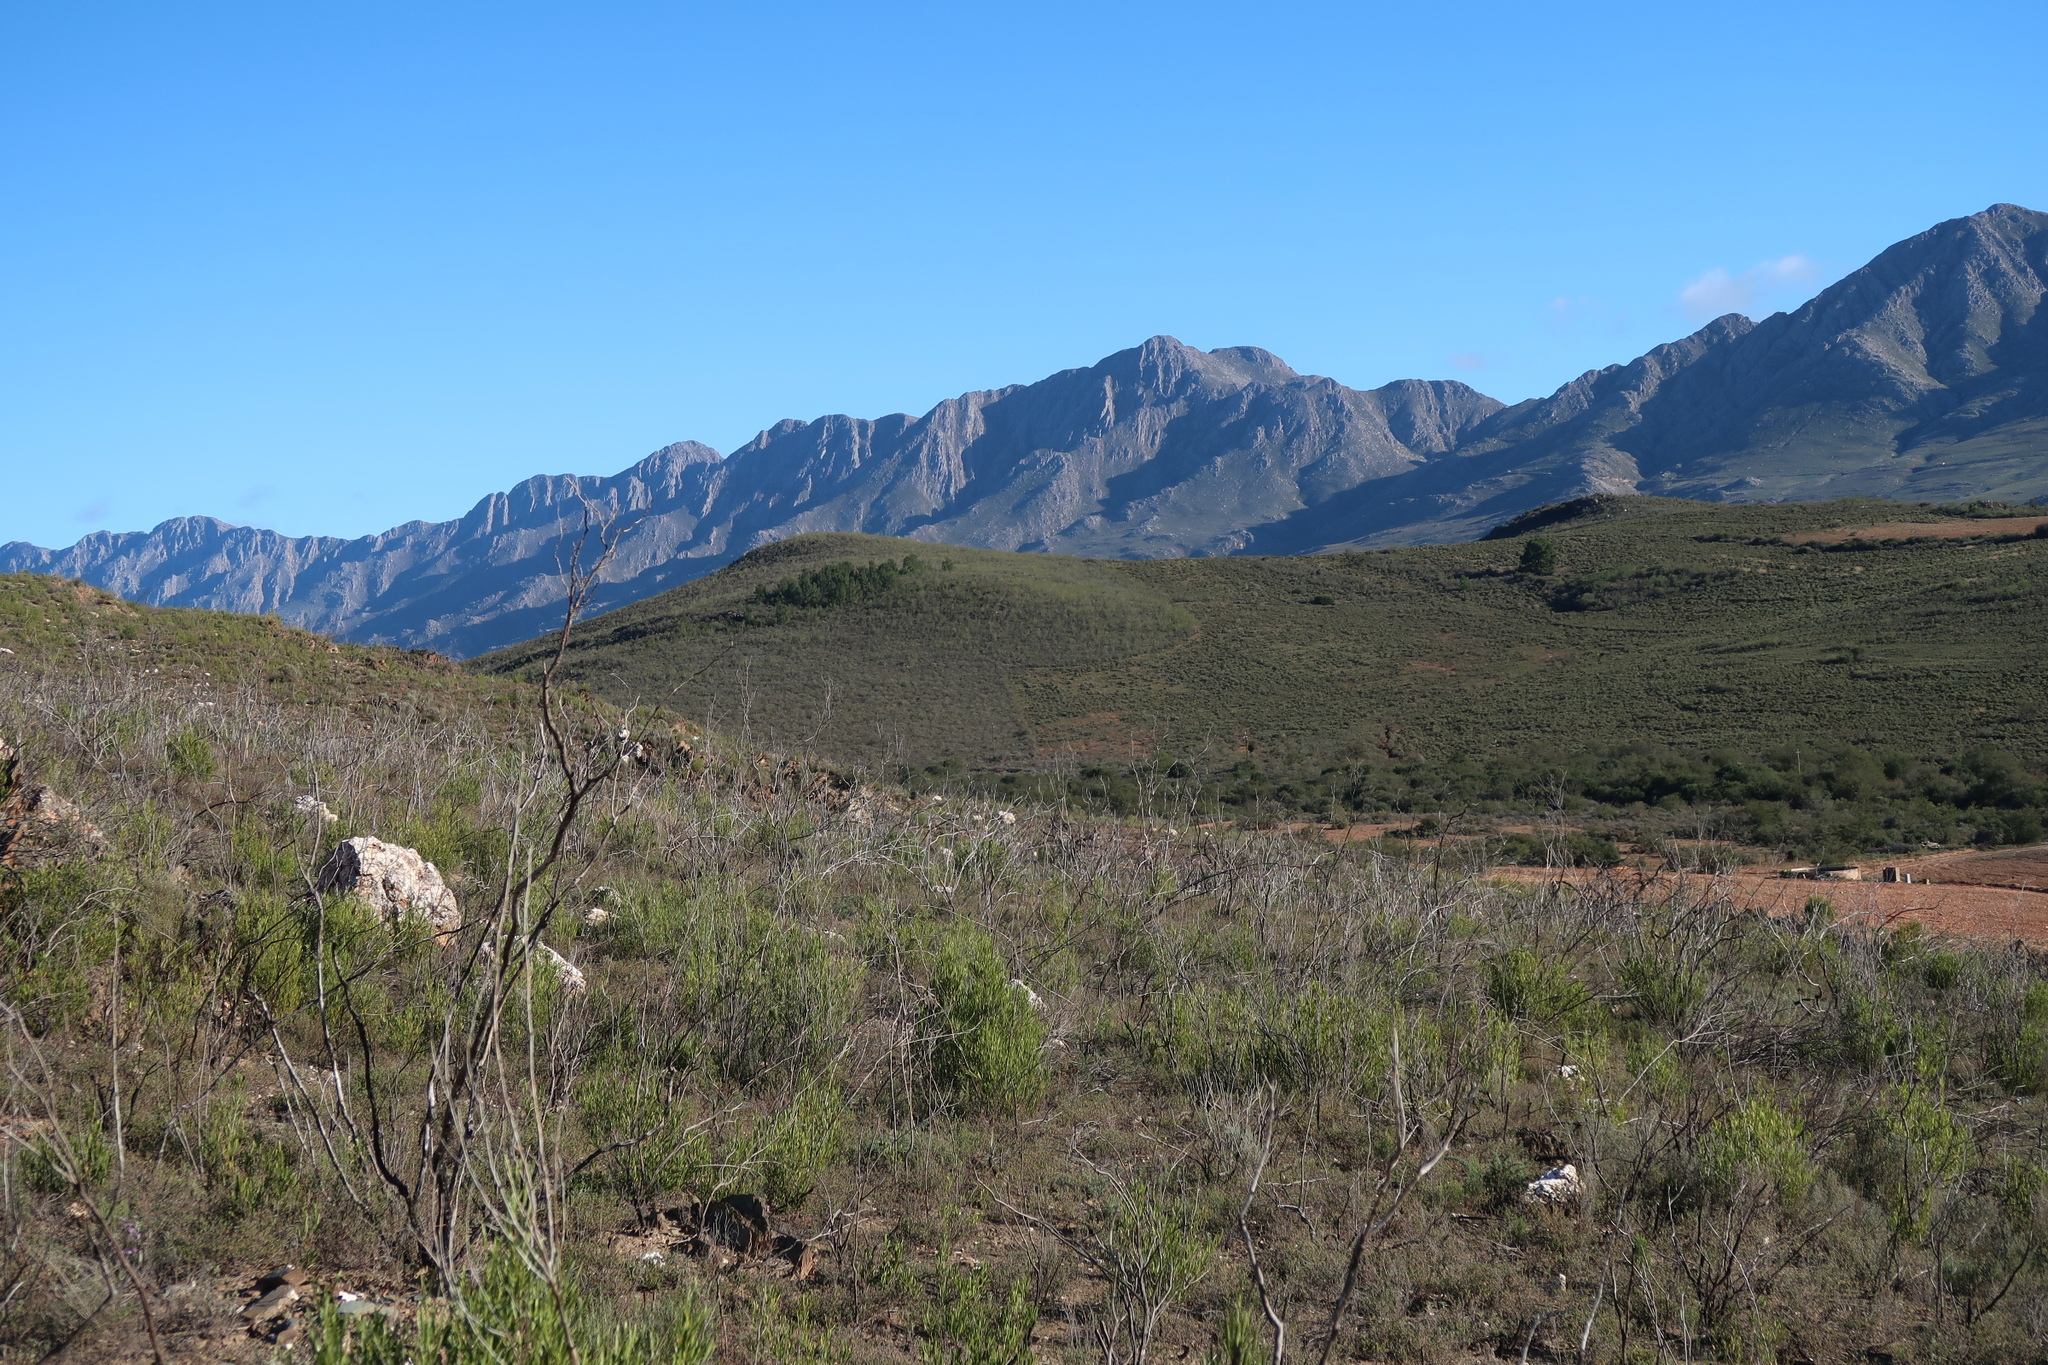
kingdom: Plantae
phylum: Tracheophyta
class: Magnoliopsida
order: Sapindales
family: Sapindaceae
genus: Dodonaea
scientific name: Dodonaea viscosa
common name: Hopbush
